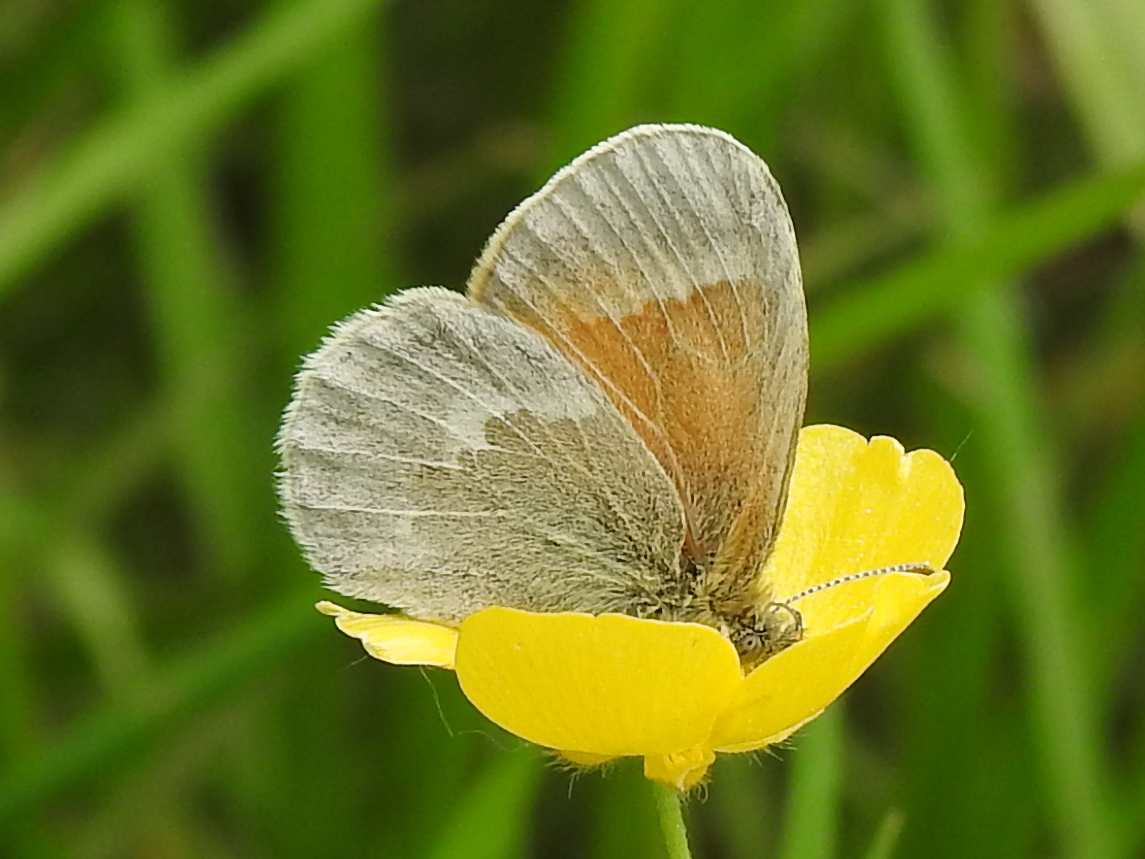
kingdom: Animalia
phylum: Arthropoda
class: Insecta
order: Lepidoptera
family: Nymphalidae
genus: Coenonympha
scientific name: Coenonympha california
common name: Common ringlet
